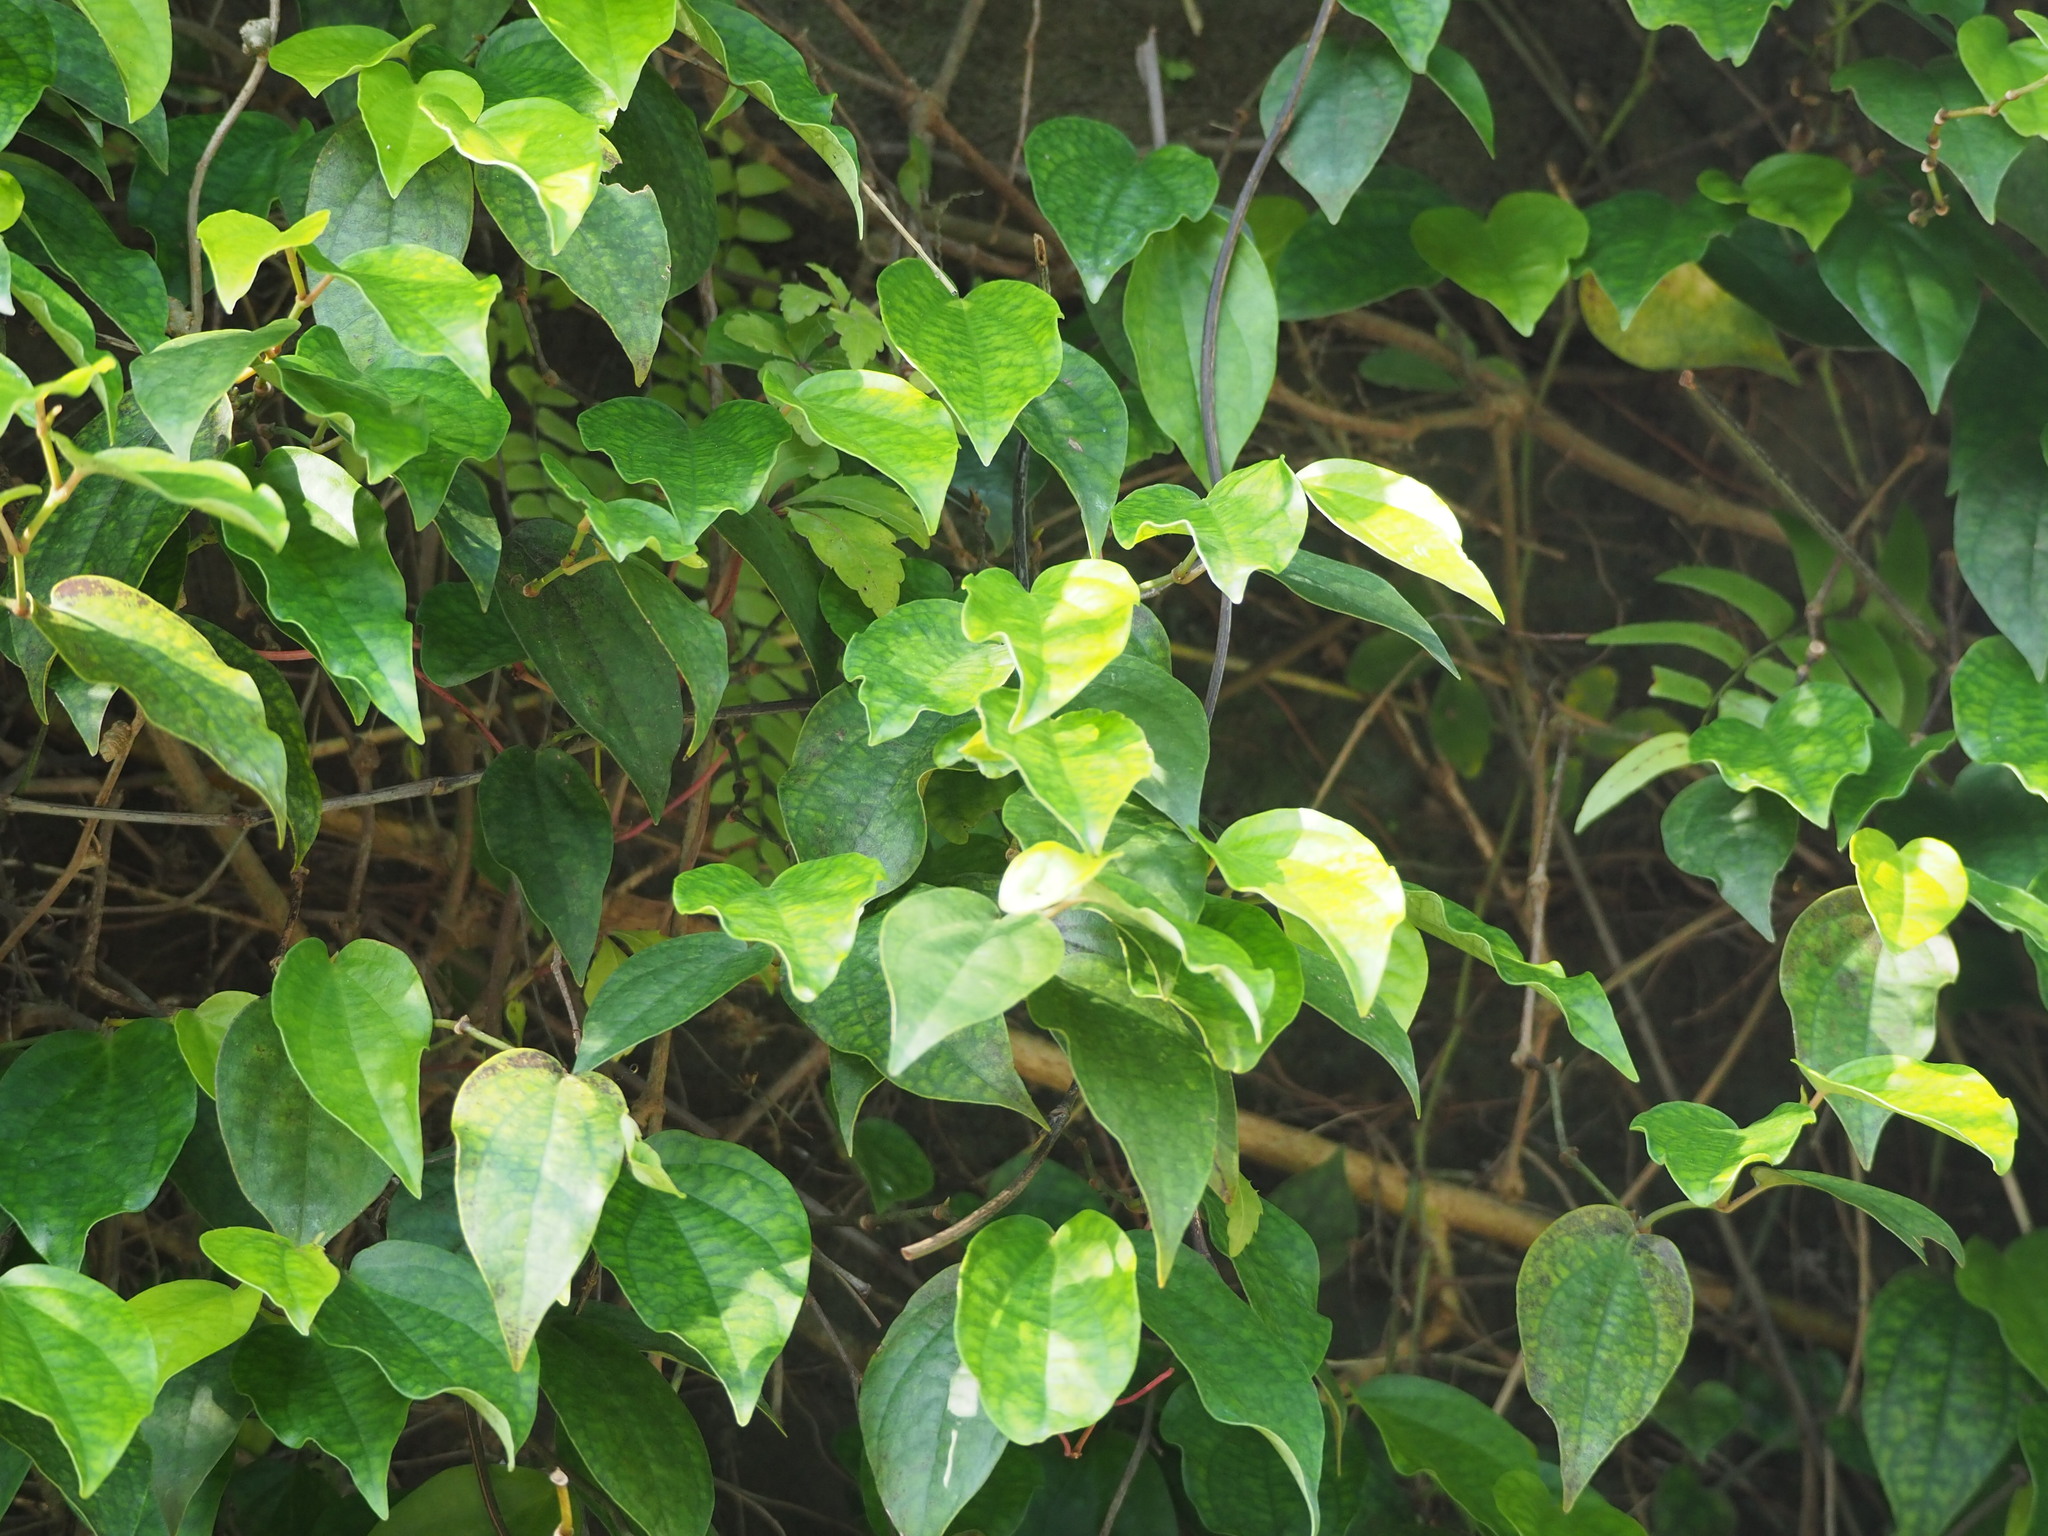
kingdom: Plantae
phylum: Tracheophyta
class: Magnoliopsida
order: Piperales
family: Piperaceae
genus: Piper
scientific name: Piper kadsura
